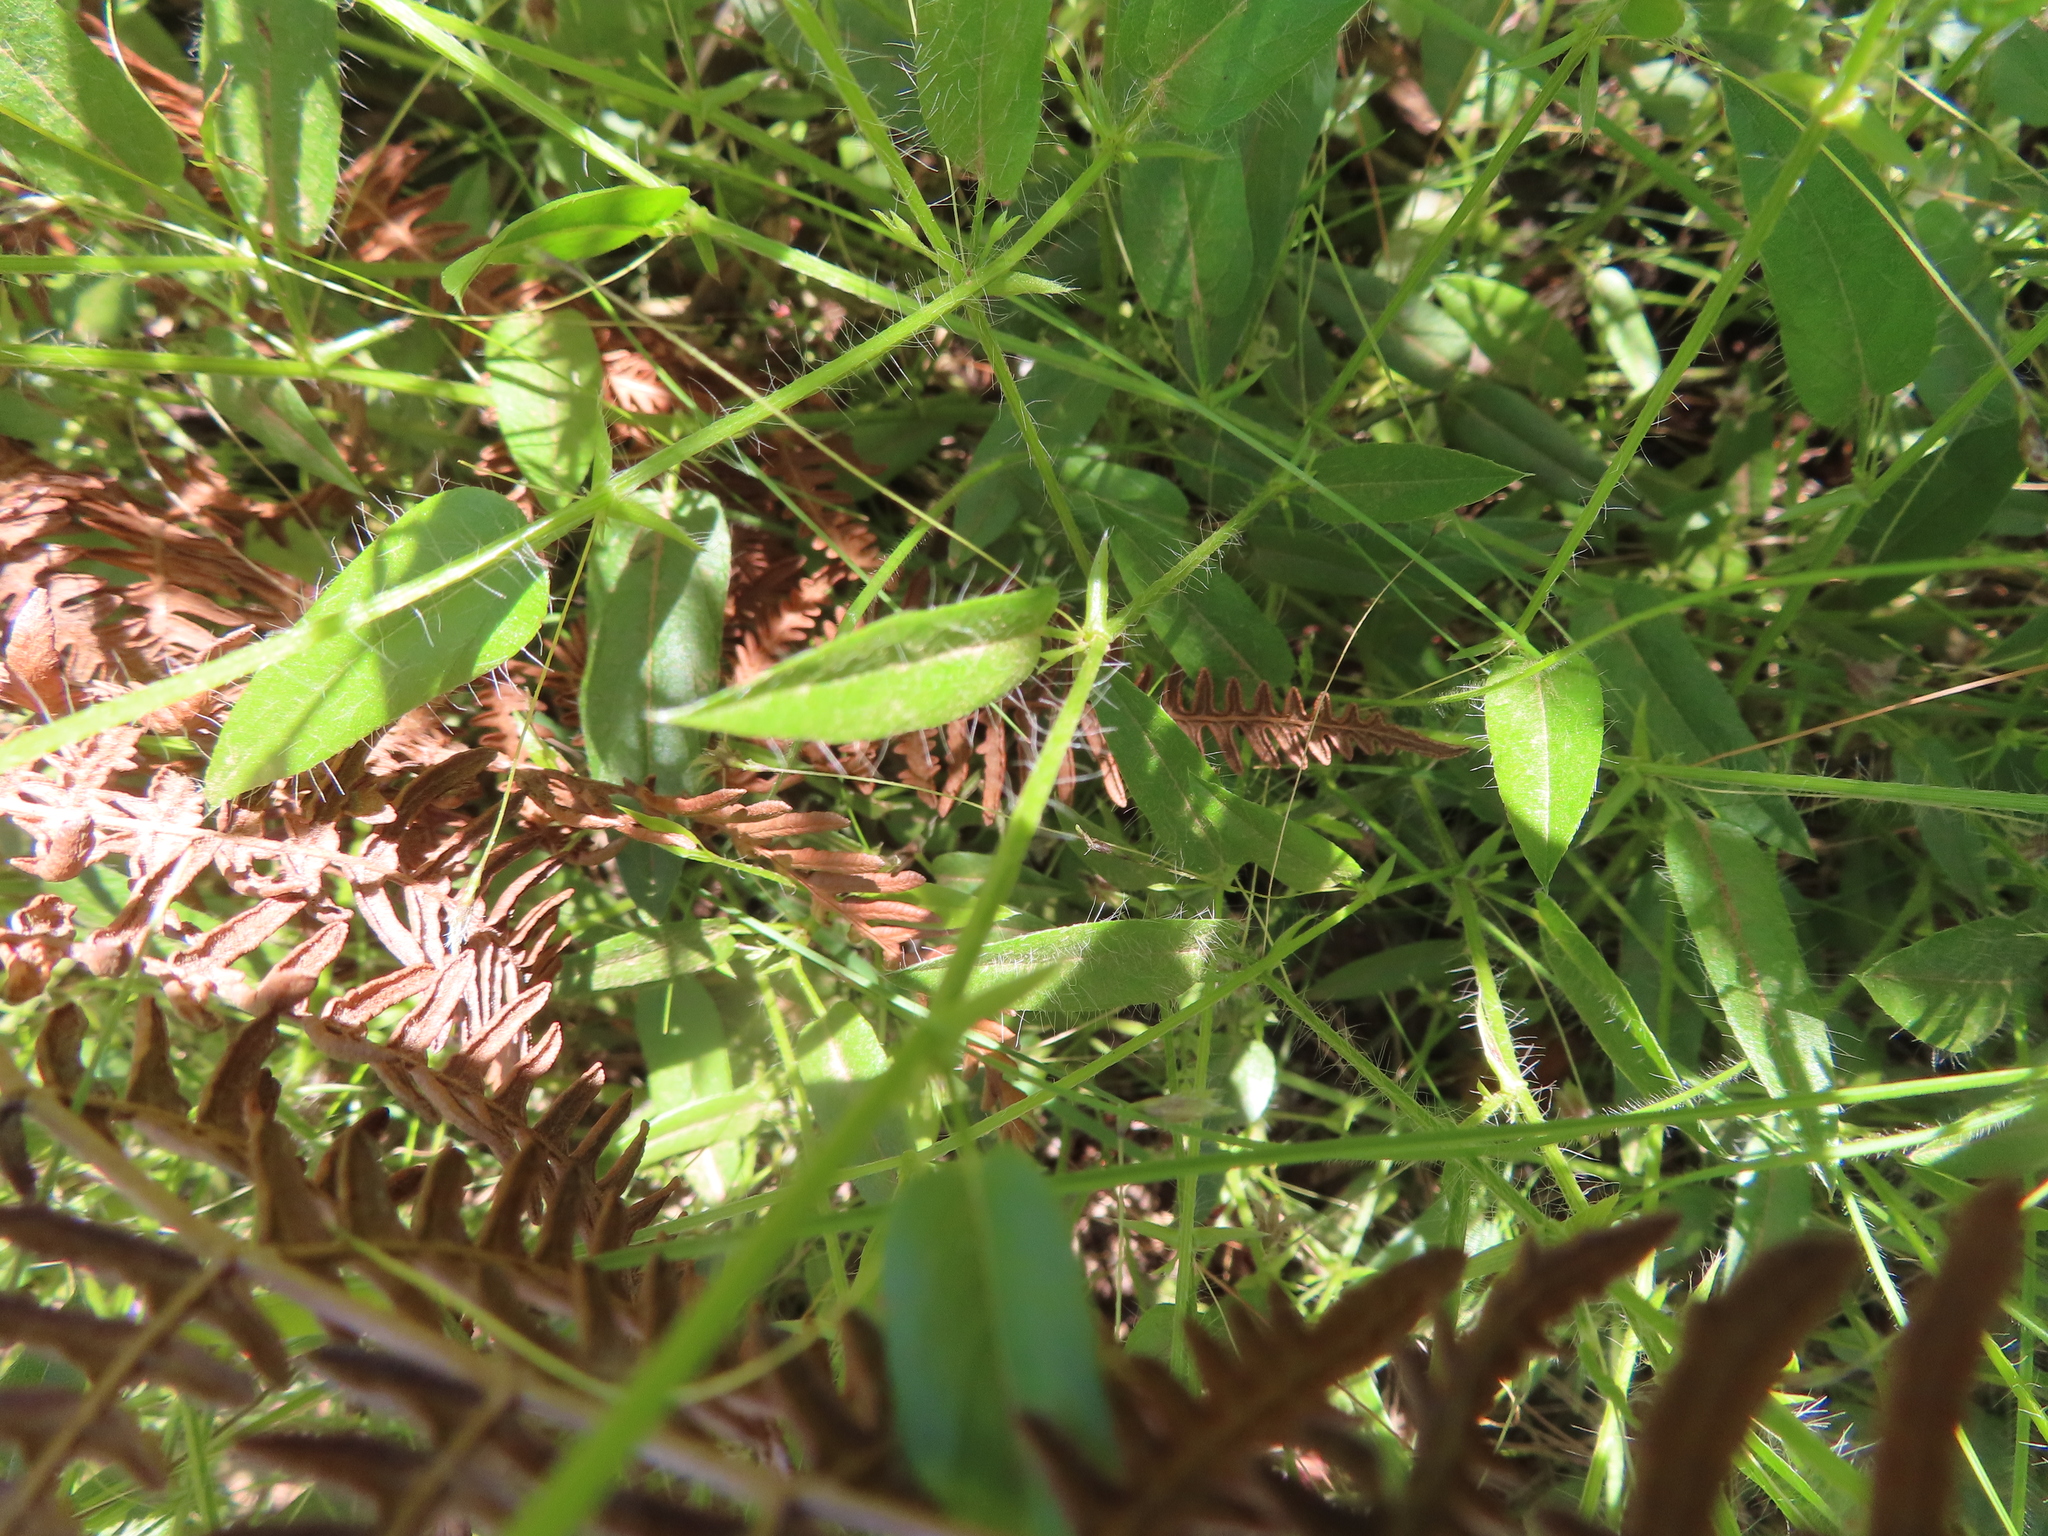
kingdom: Plantae
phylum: Tracheophyta
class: Magnoliopsida
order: Fabales
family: Fabaceae
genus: Psoralea
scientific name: Psoralea asarina
